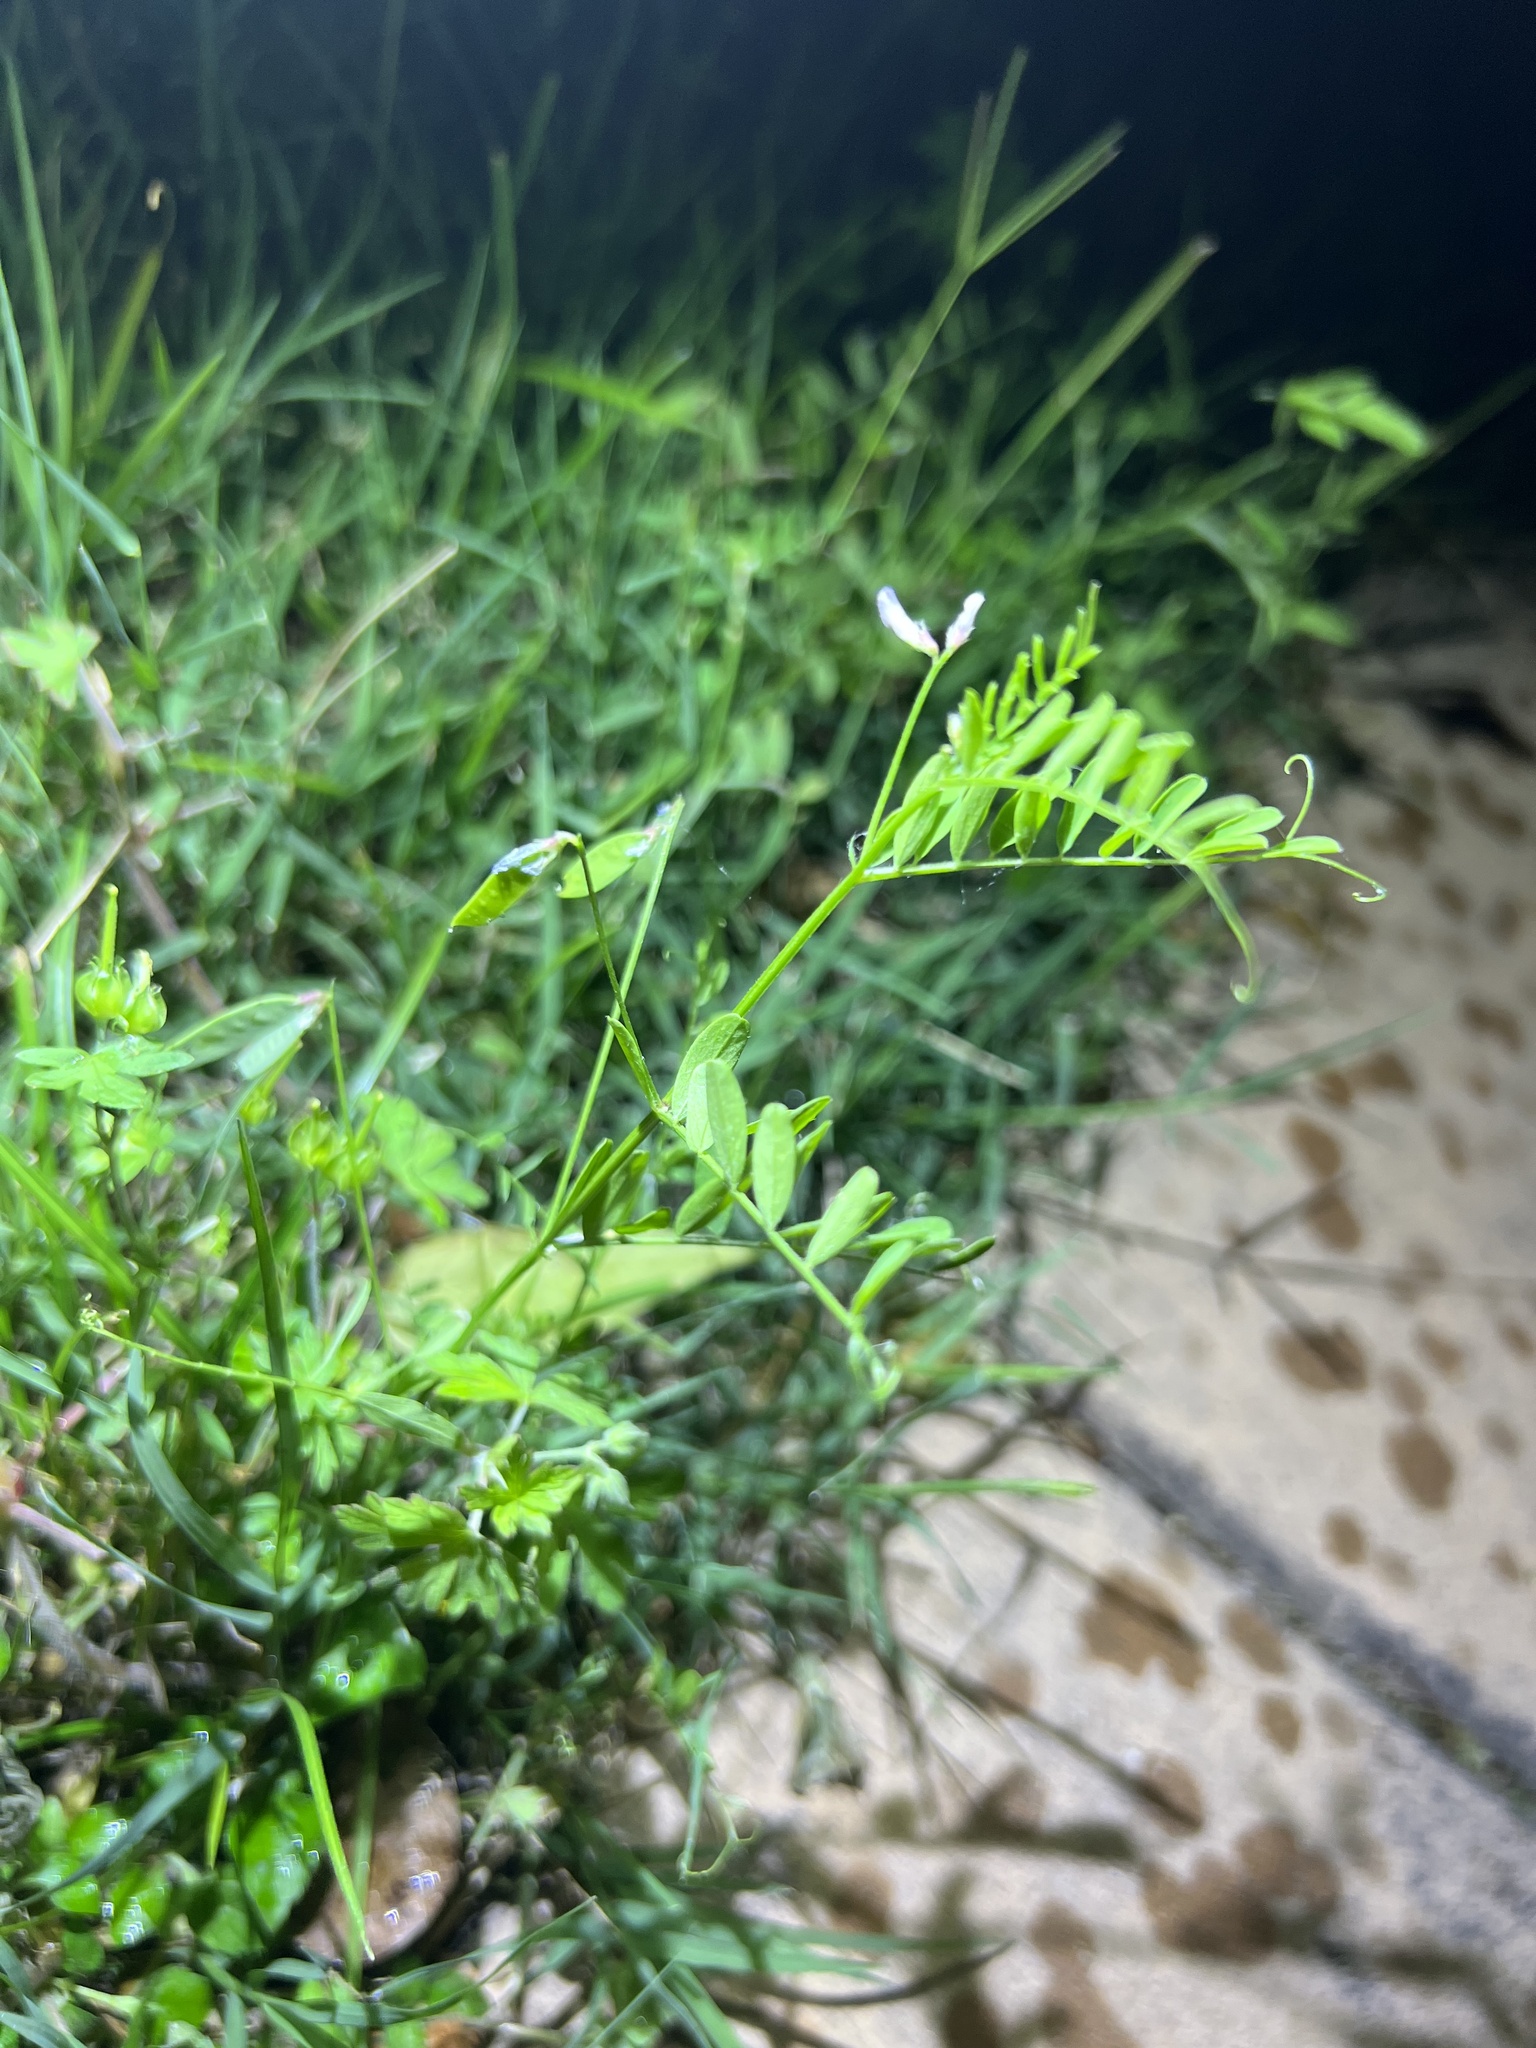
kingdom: Plantae
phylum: Tracheophyta
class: Magnoliopsida
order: Fabales
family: Fabaceae
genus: Vicia
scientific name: Vicia ludoviciana
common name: Louisiana vetch
